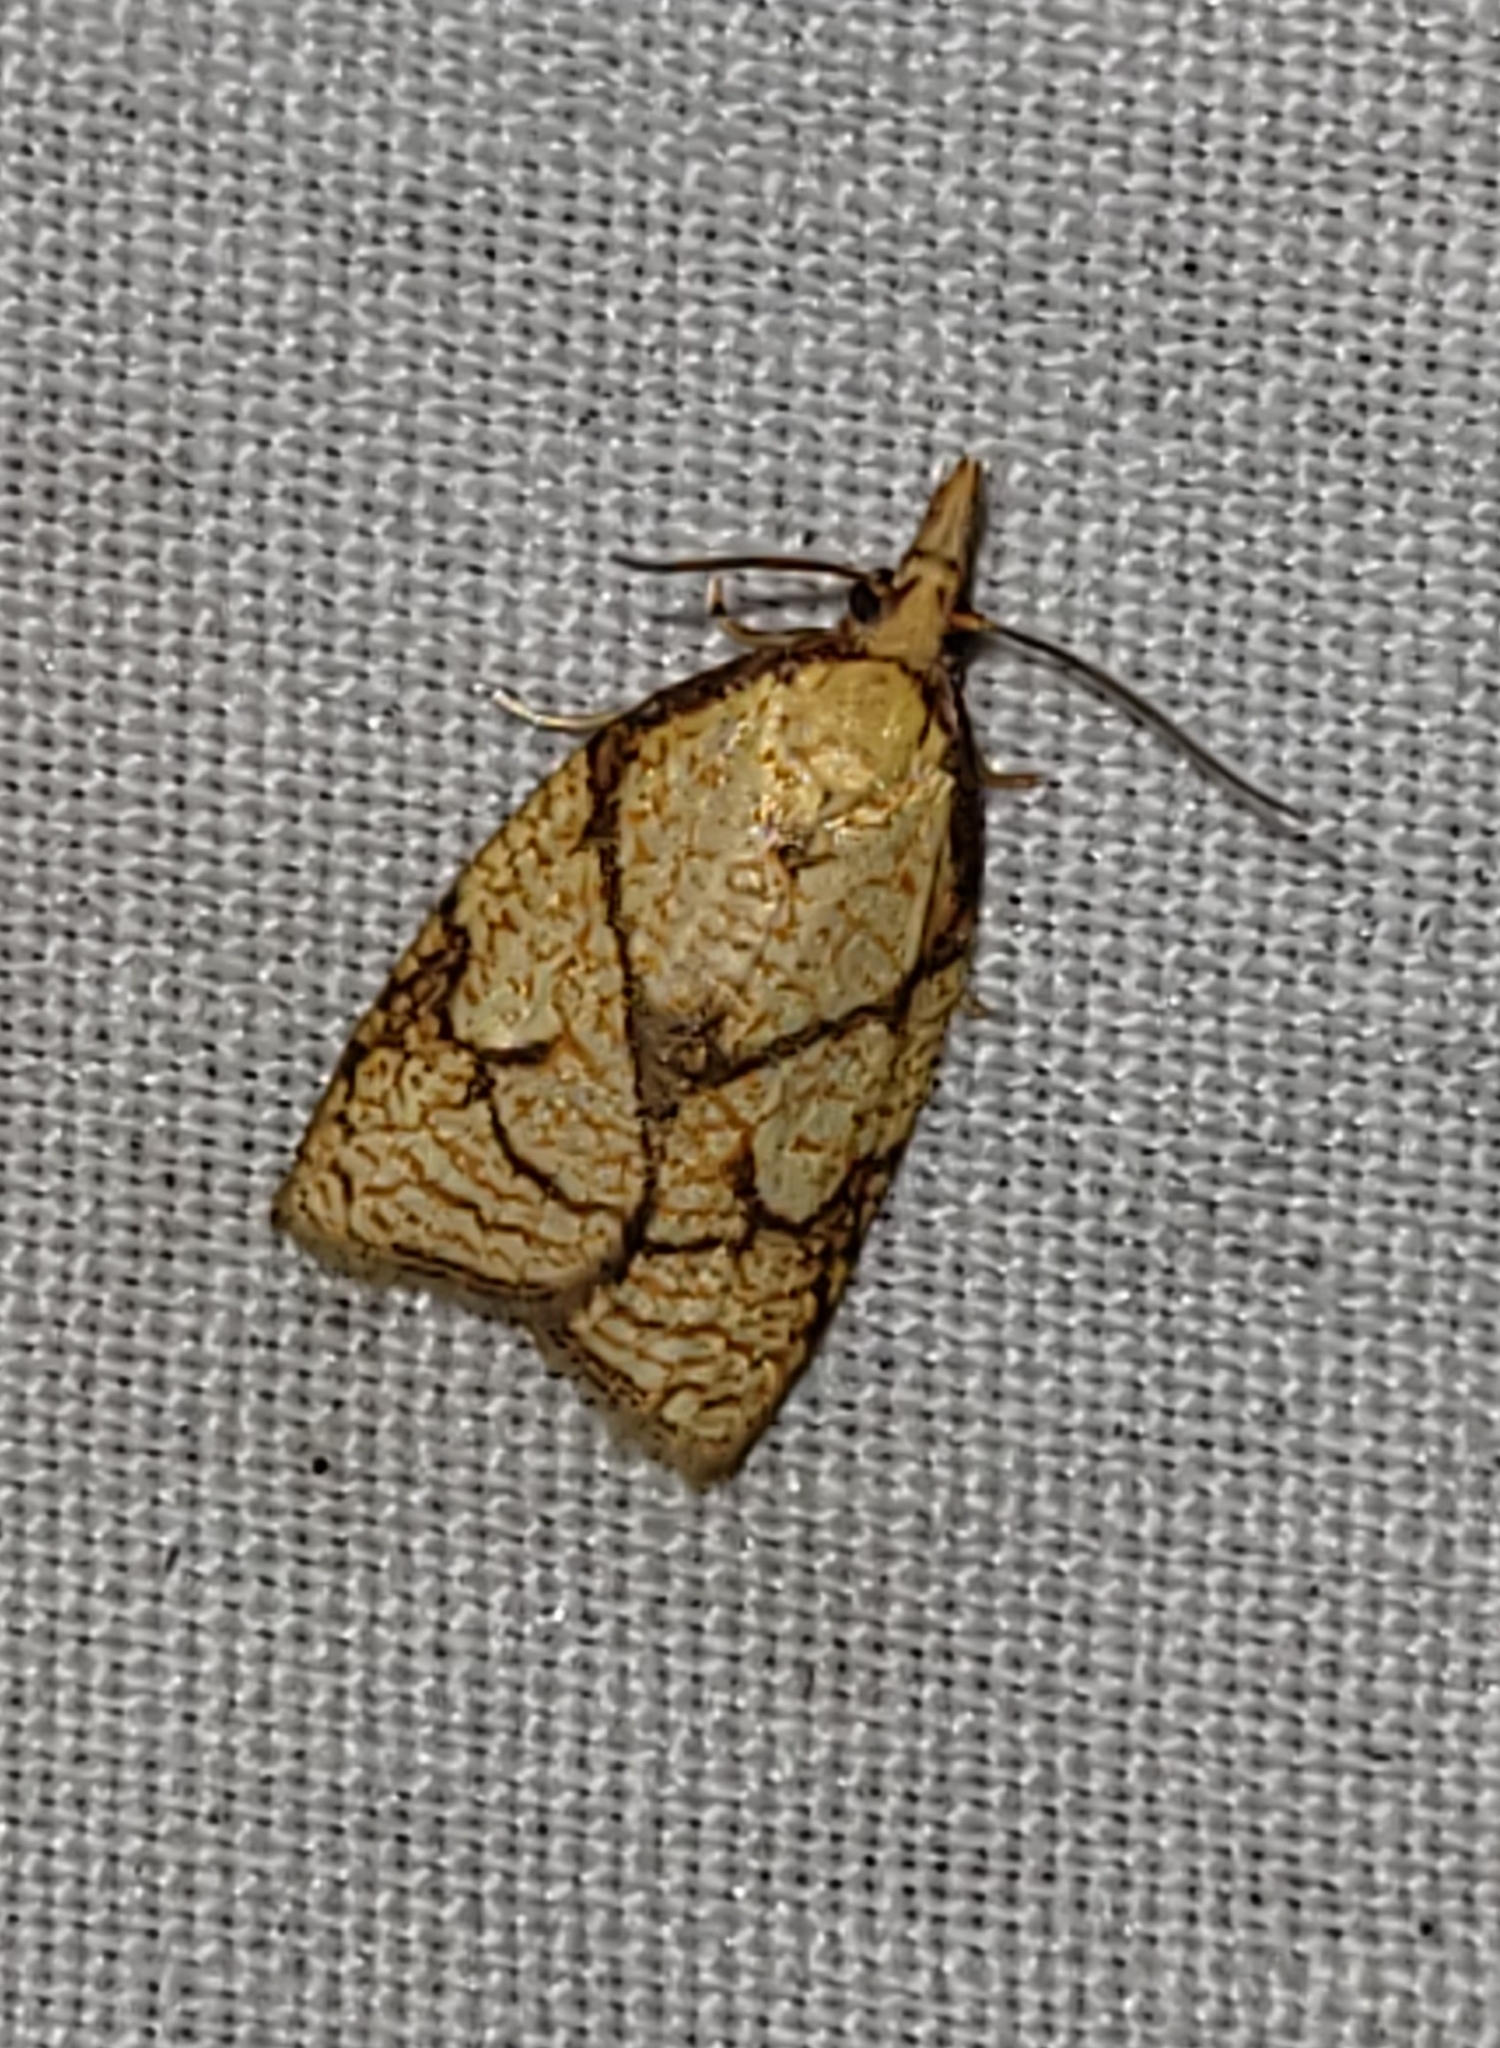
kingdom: Animalia
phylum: Arthropoda
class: Insecta
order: Lepidoptera
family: Tortricidae
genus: Cenopis
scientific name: Cenopis reticulatana
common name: Reticulated fruitworm moth
